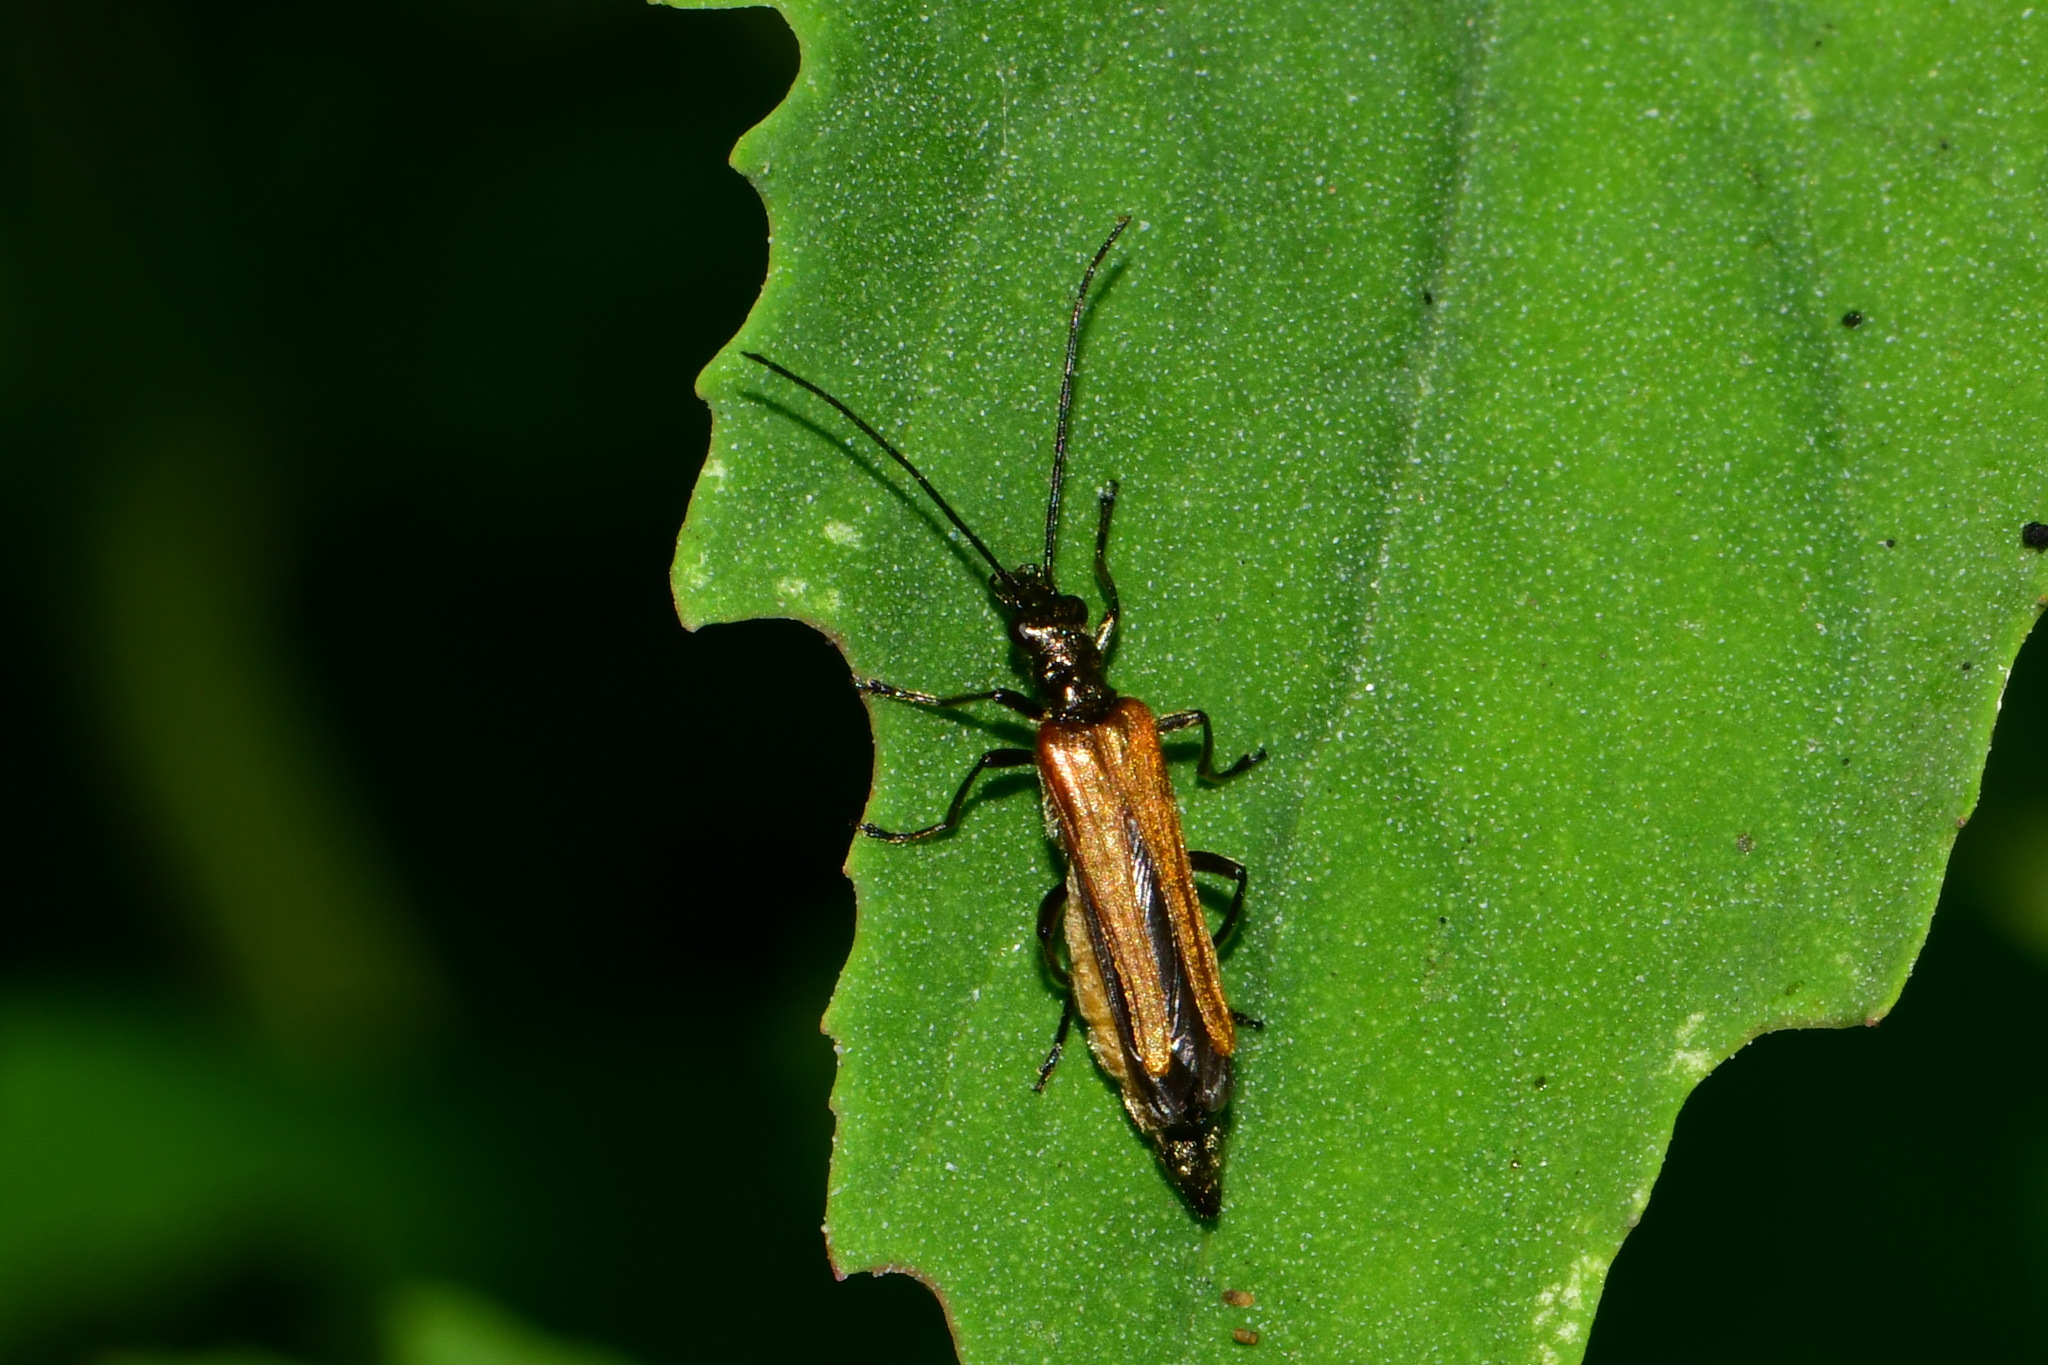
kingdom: Animalia
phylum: Arthropoda
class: Insecta
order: Coleoptera
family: Oedemeridae
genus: Oedemera
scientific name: Oedemera femorata
